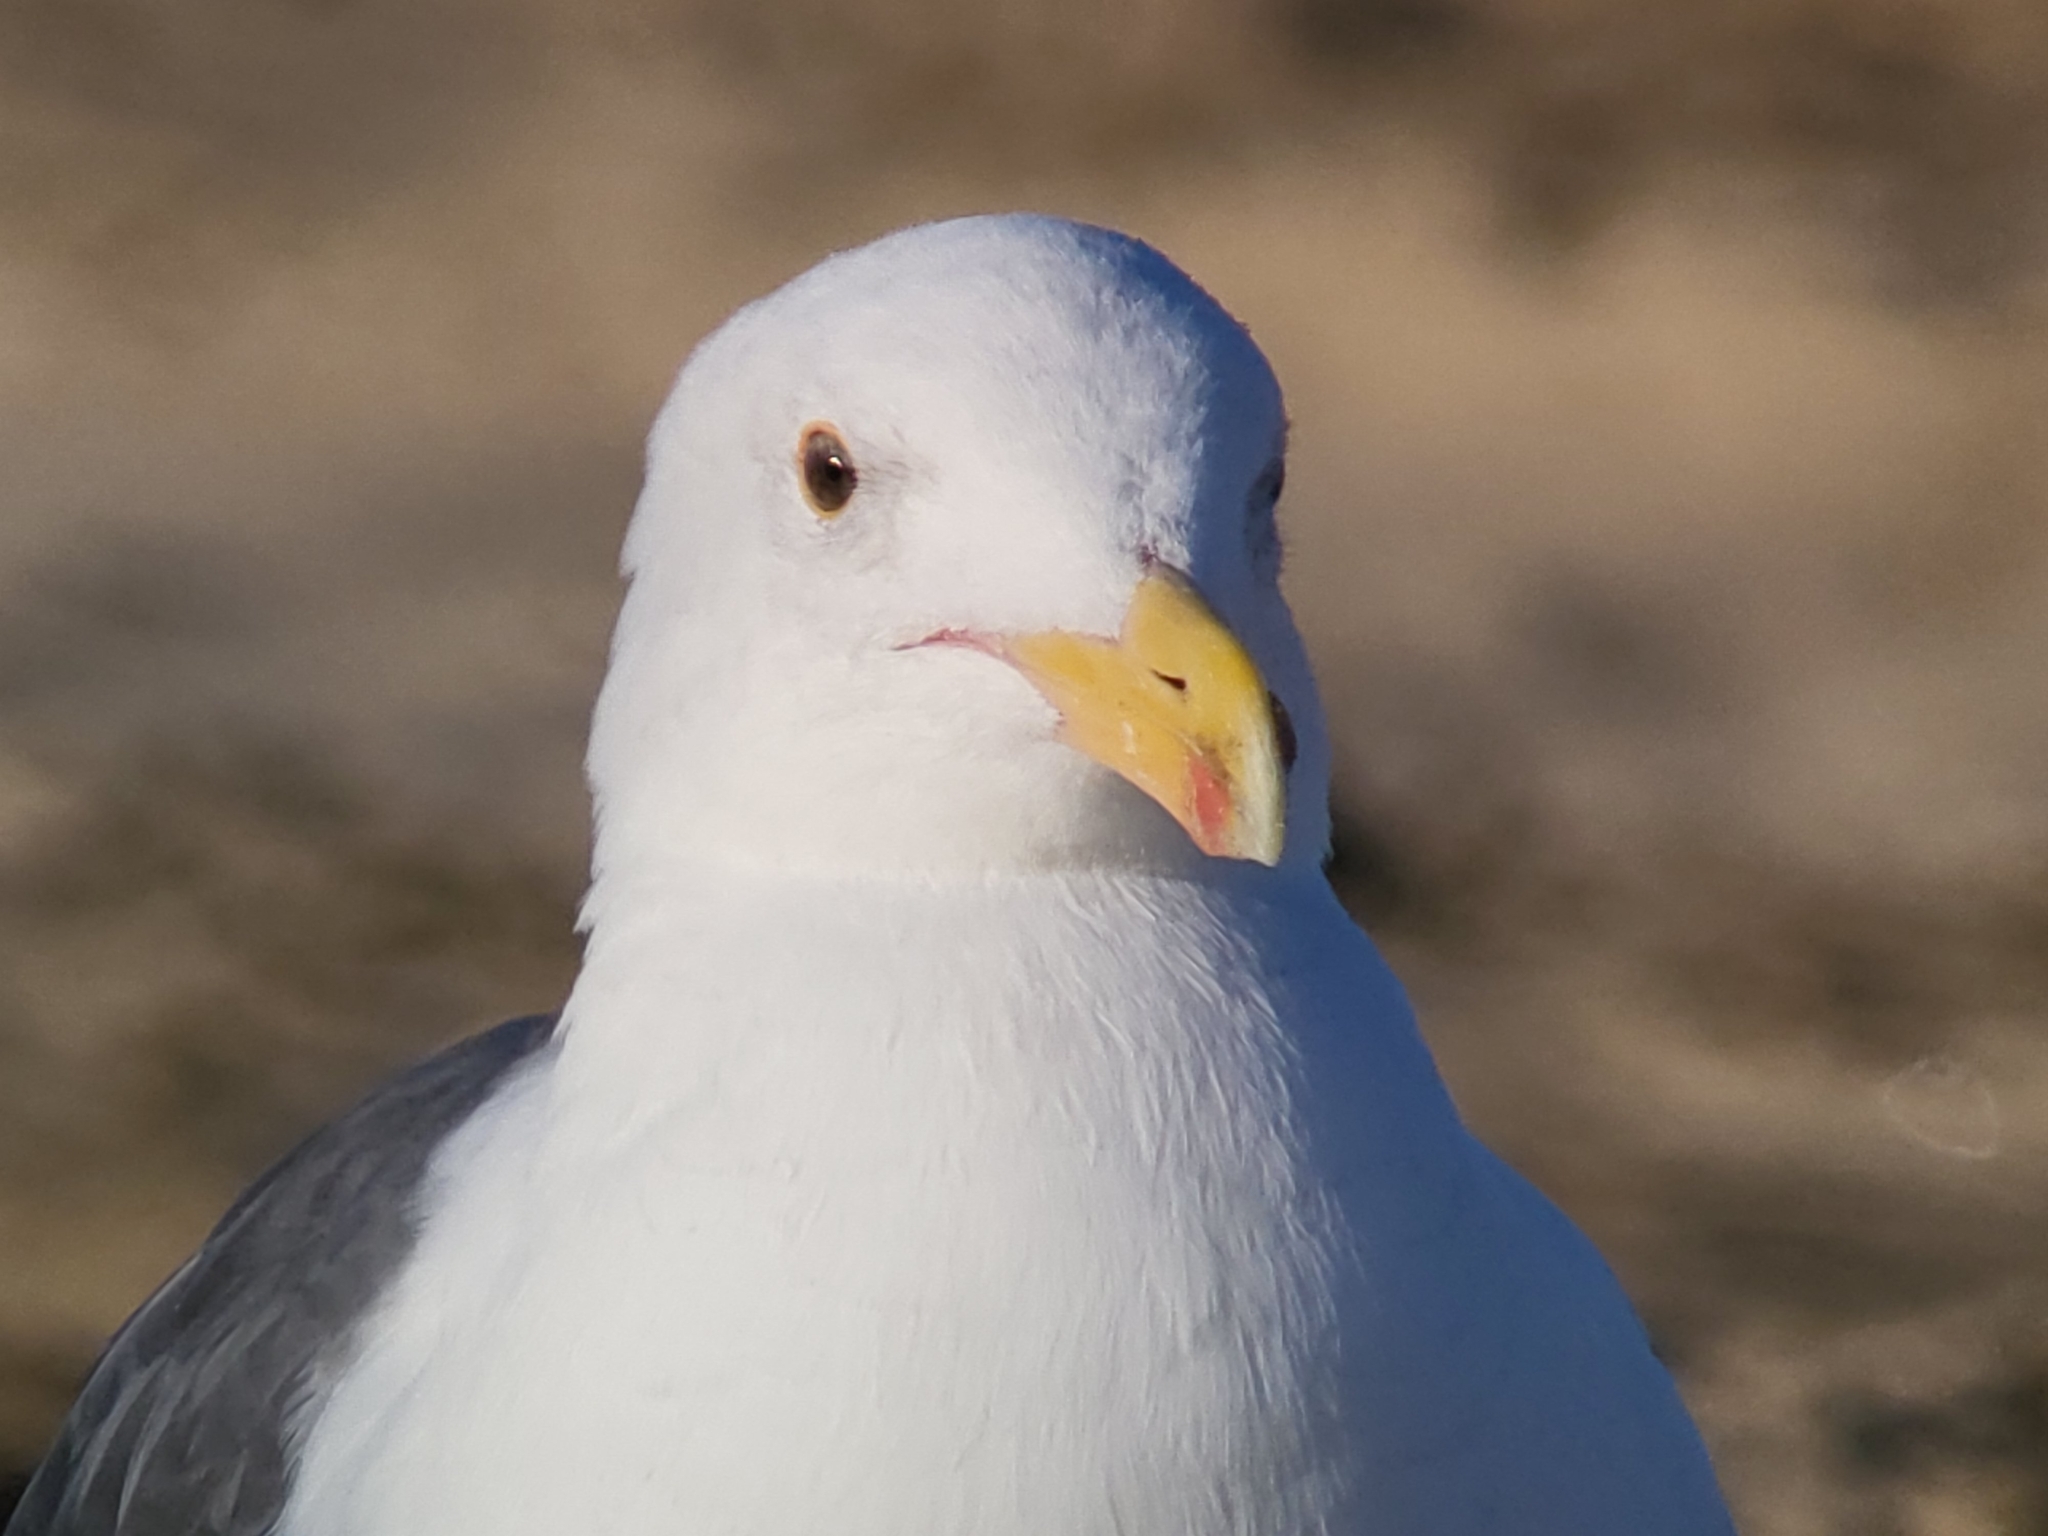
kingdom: Animalia
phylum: Chordata
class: Aves
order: Charadriiformes
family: Laridae
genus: Larus
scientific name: Larus occidentalis
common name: Western gull
